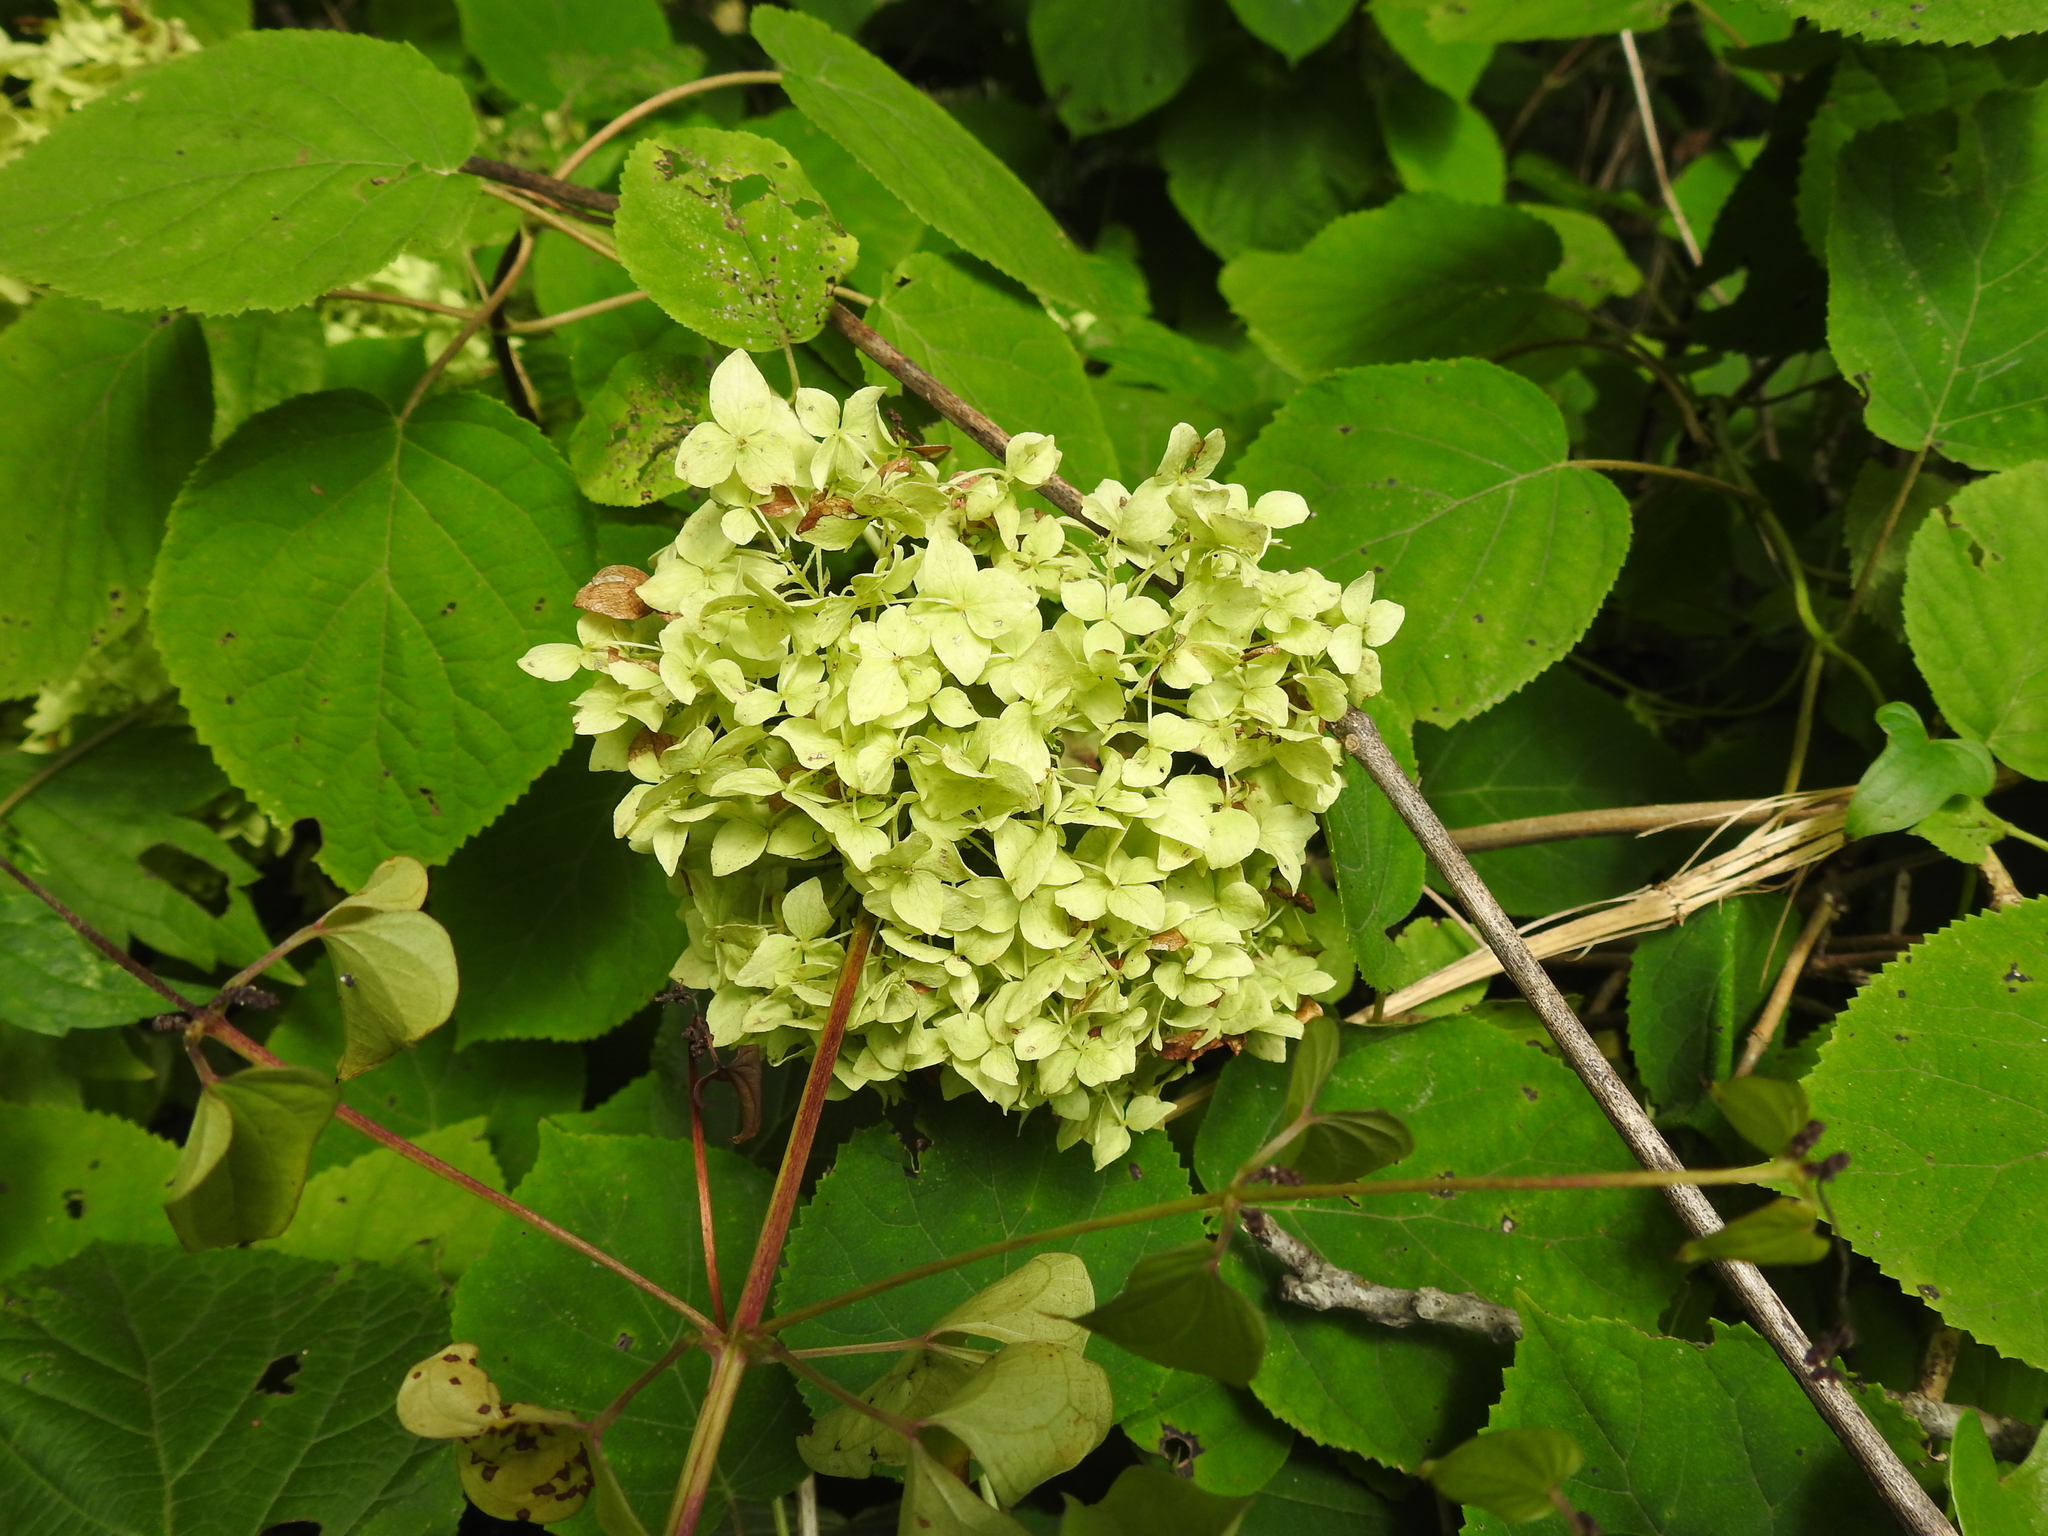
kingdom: Plantae
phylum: Tracheophyta
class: Magnoliopsida
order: Cornales
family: Hydrangeaceae
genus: Hydrangea
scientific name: Hydrangea arborescens
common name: Sevenbark
